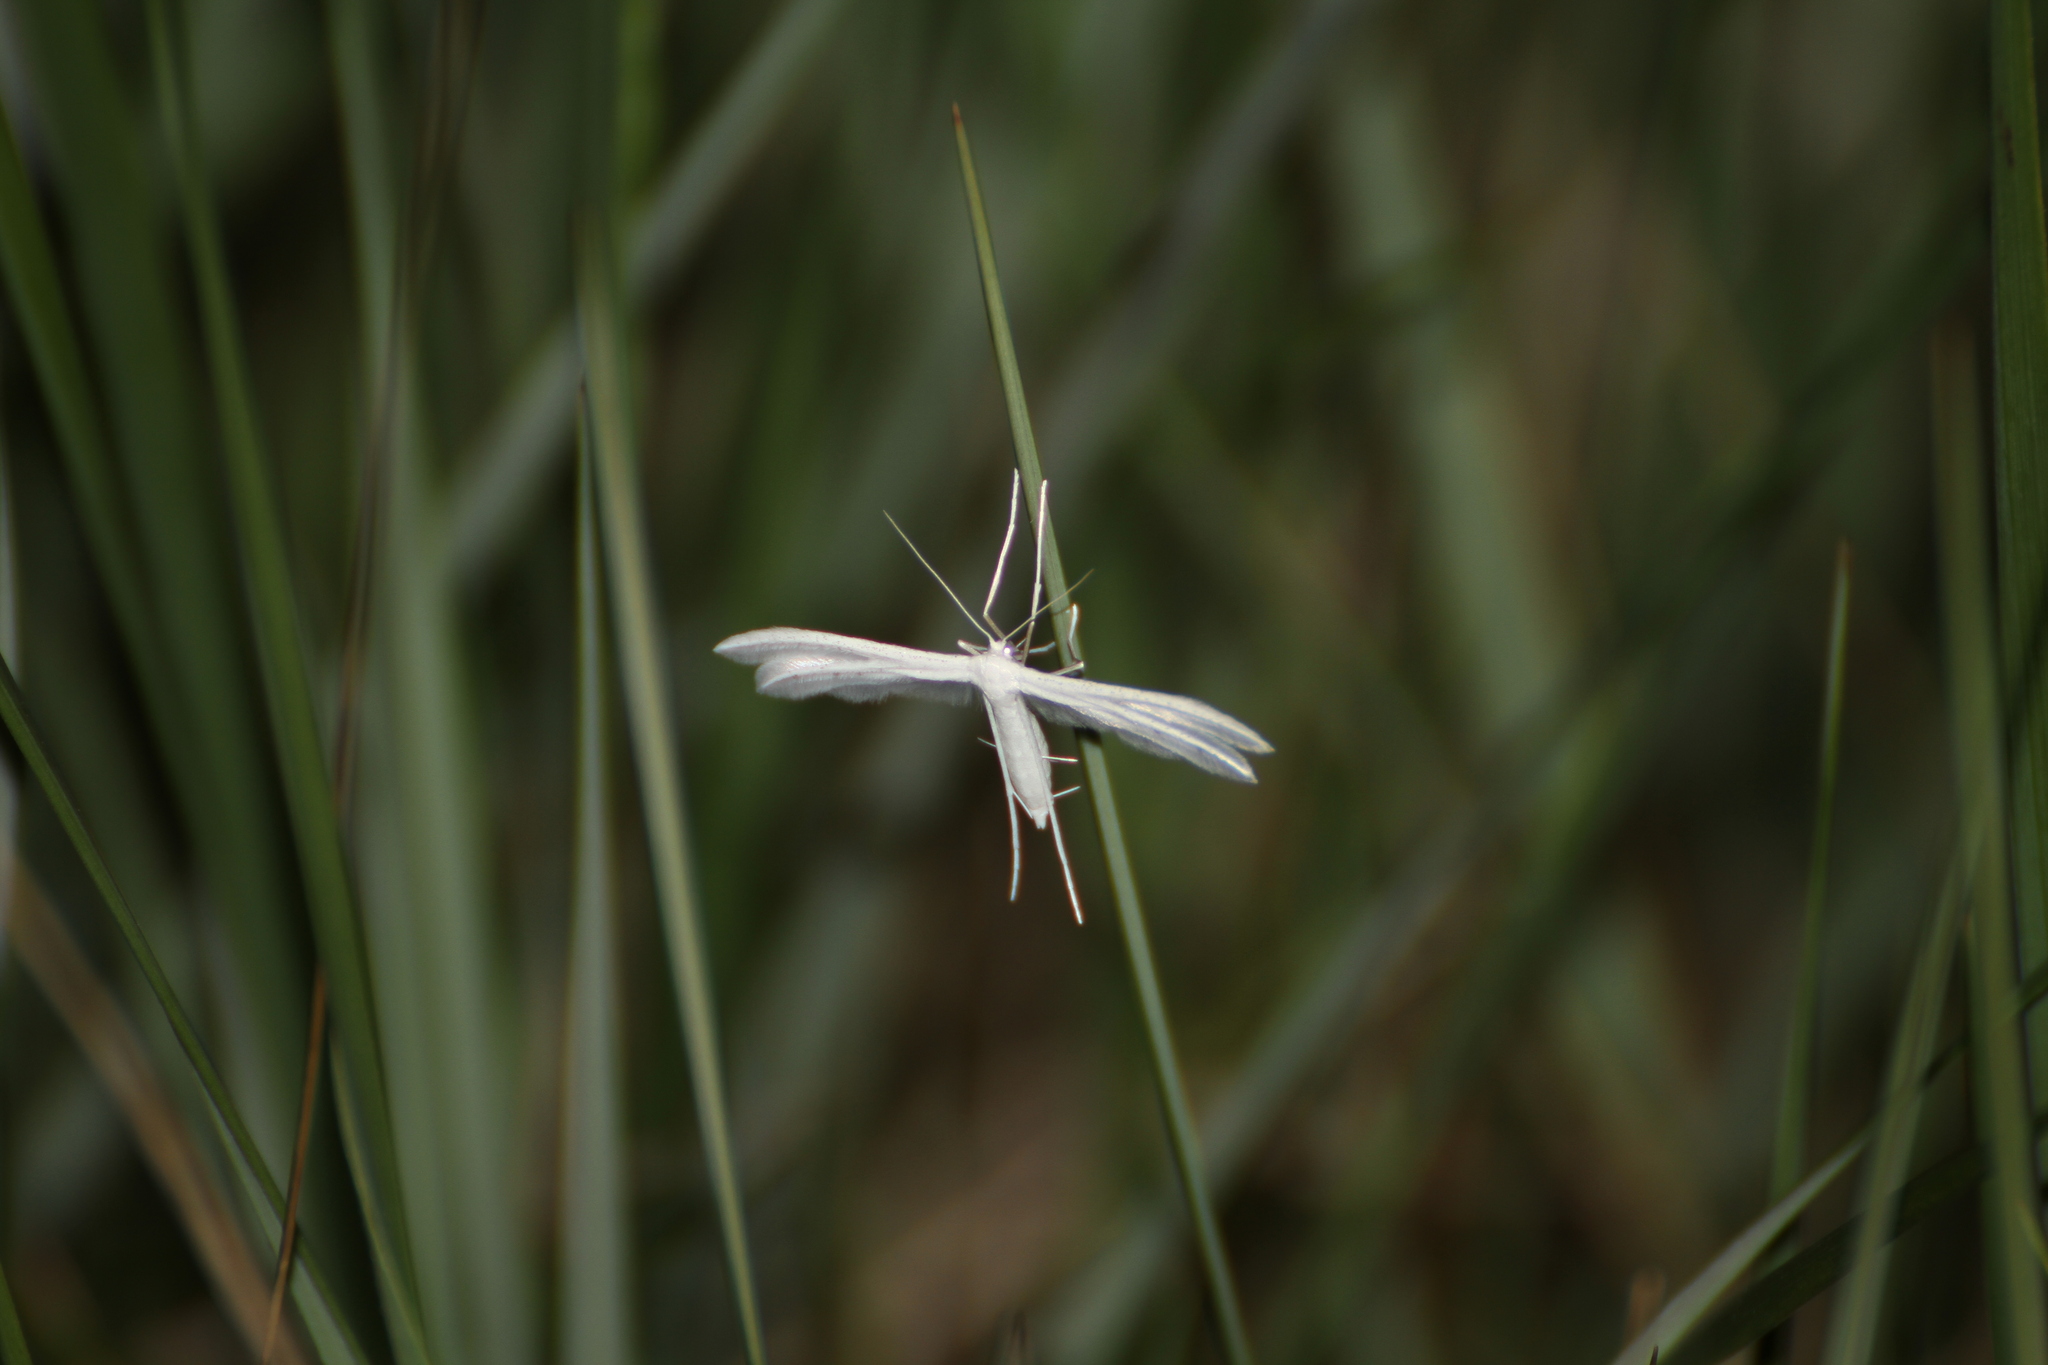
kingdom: Animalia
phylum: Arthropoda
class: Insecta
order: Lepidoptera
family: Pterophoridae
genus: Pterophorus
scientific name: Pterophorus pentadactyla
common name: White plume moth
